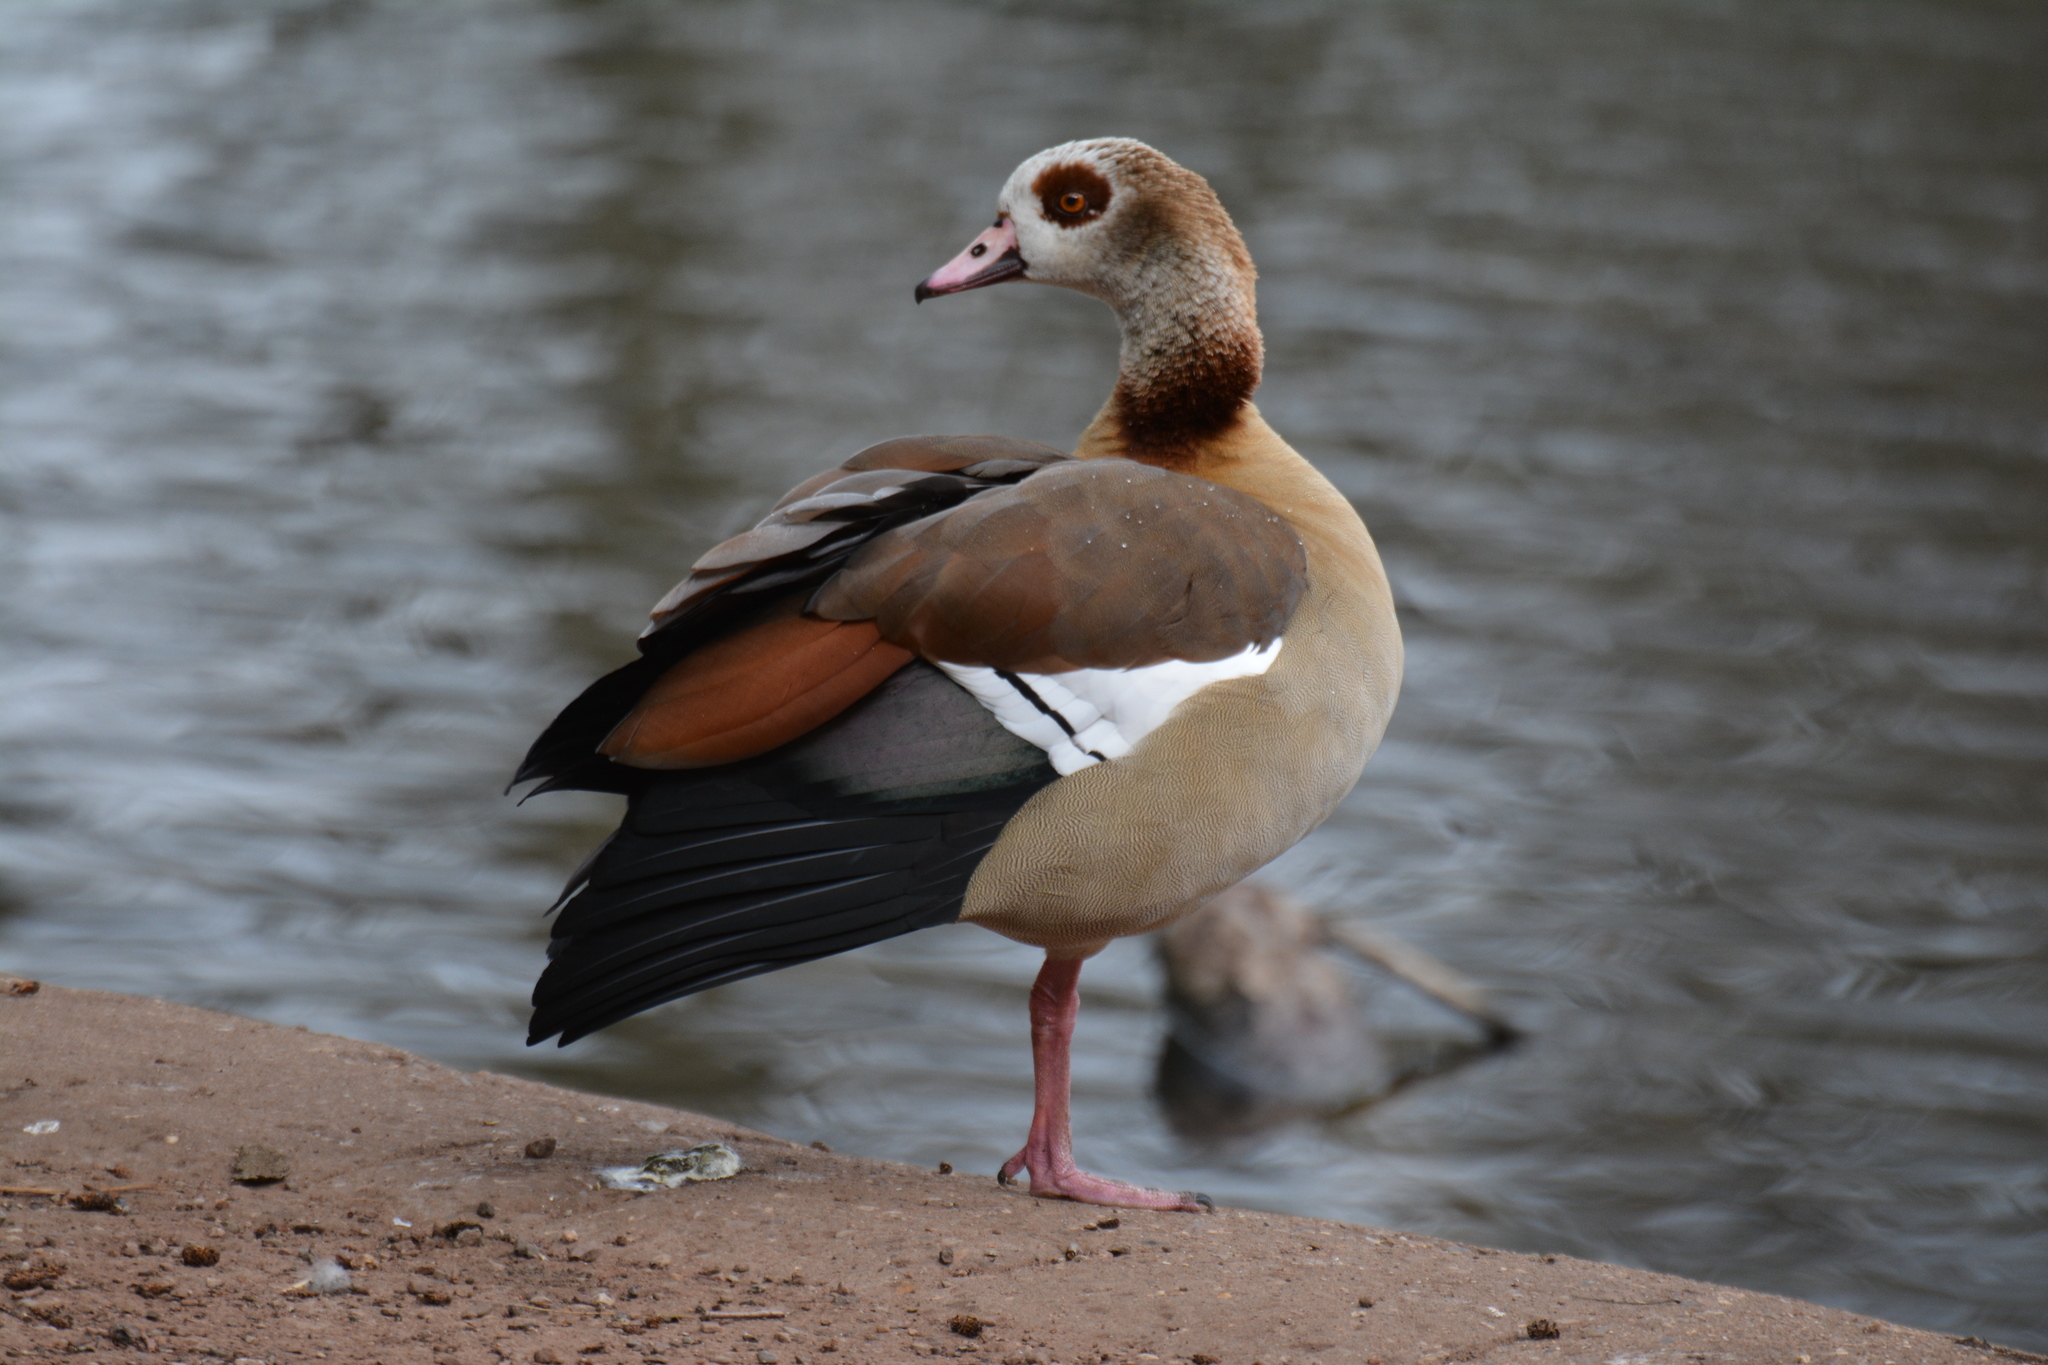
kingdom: Animalia
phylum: Chordata
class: Aves
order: Anseriformes
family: Anatidae
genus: Alopochen
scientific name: Alopochen aegyptiaca
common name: Egyptian goose
